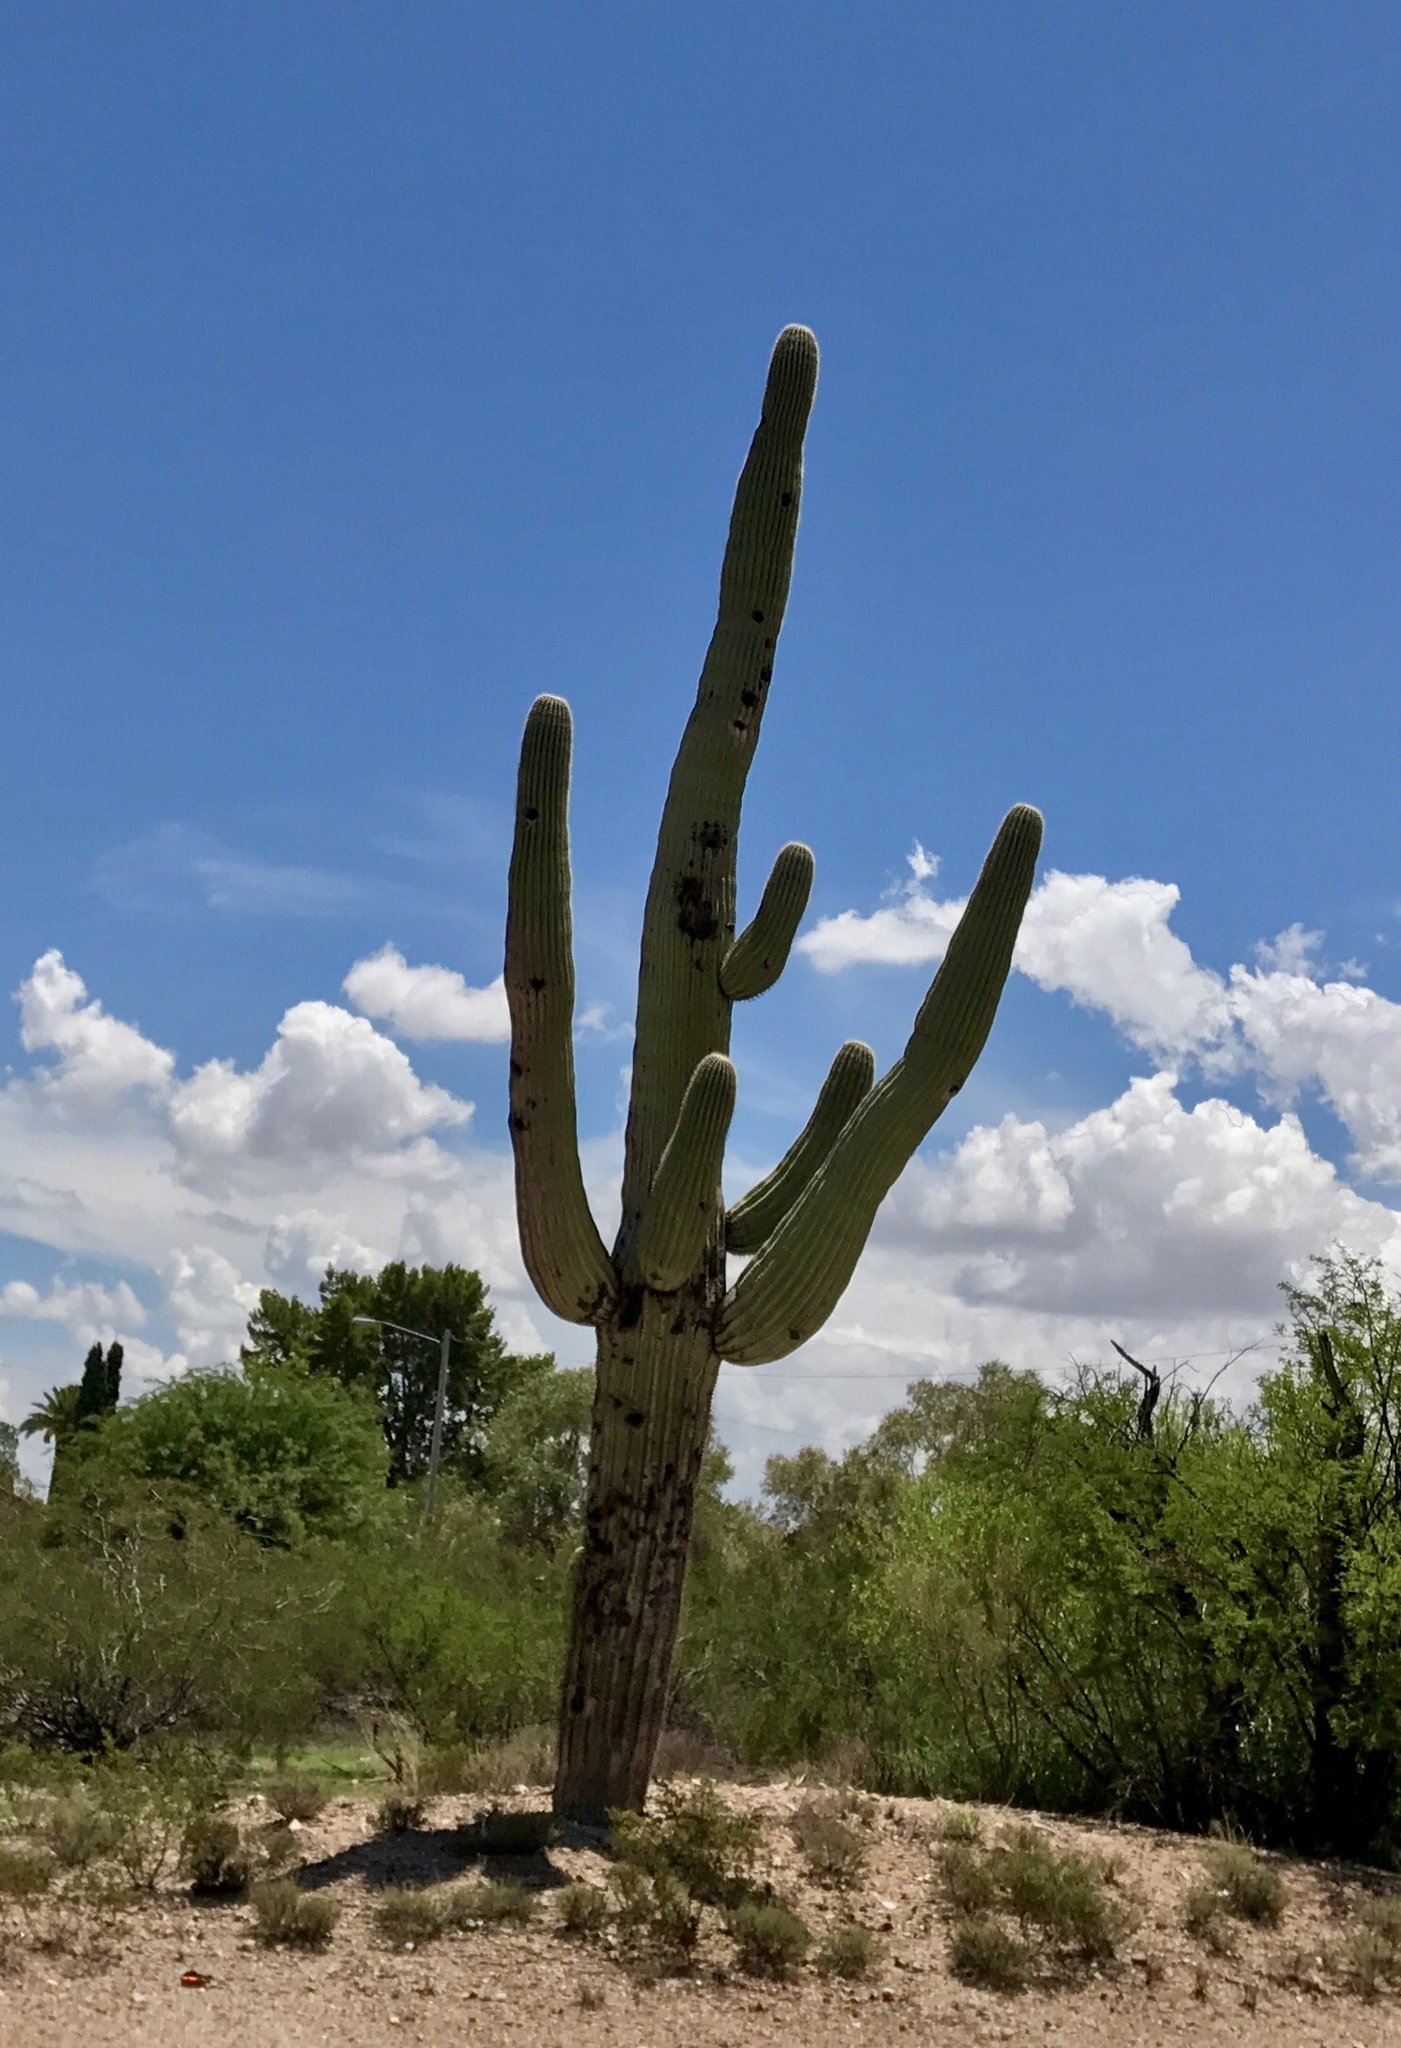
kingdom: Plantae
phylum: Tracheophyta
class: Magnoliopsida
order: Caryophyllales
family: Cactaceae
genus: Carnegiea
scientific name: Carnegiea gigantea
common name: Saguaro
